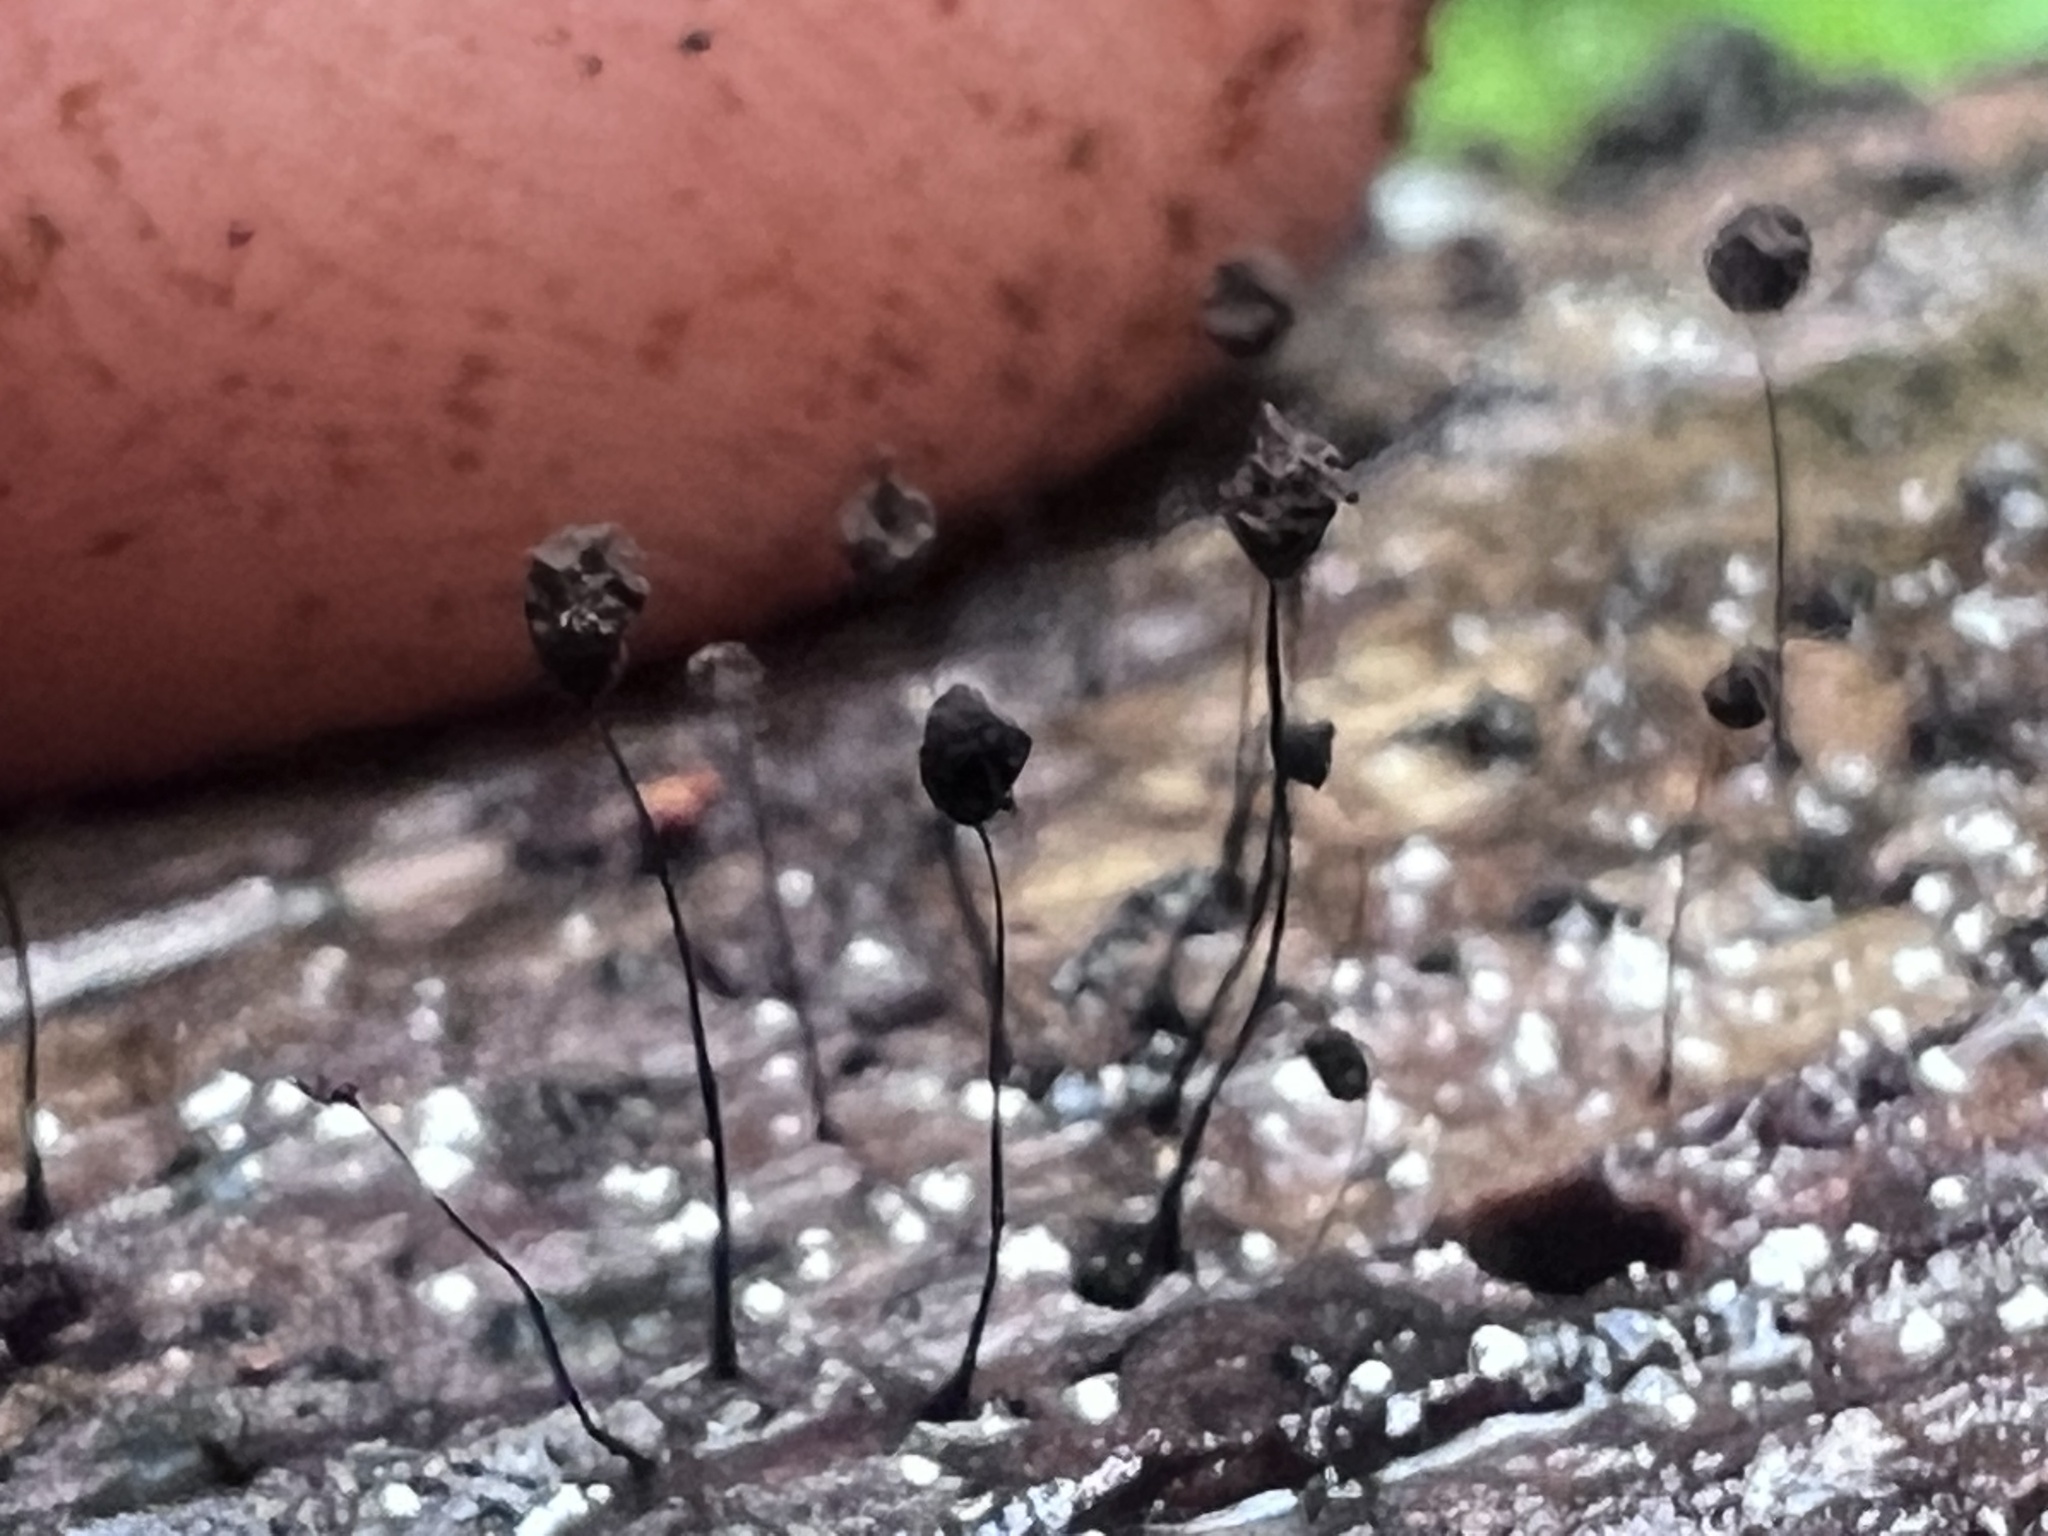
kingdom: Protozoa
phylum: Mycetozoa
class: Myxomycetes
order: Stemonitidales
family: Stemonitidaceae
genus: Comatricha
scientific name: Comatricha nigra
